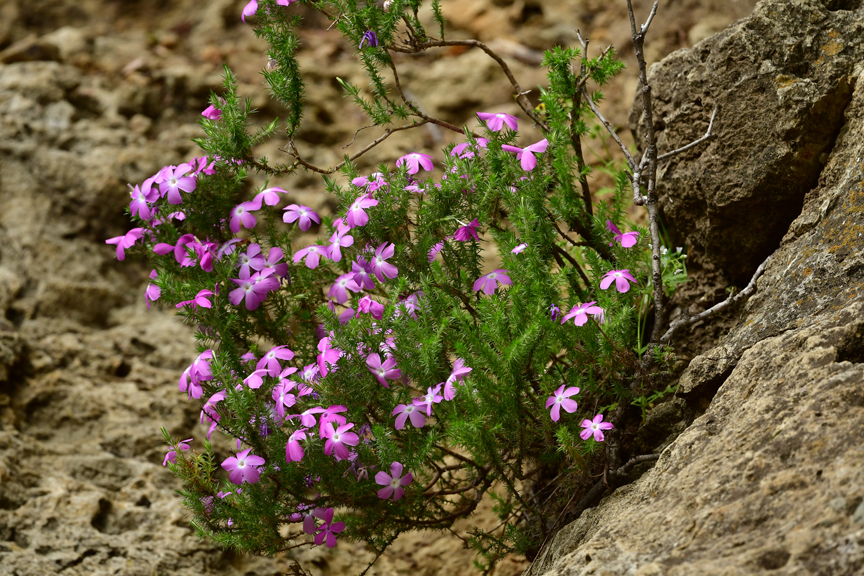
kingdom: Plantae
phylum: Tracheophyta
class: Magnoliopsida
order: Ericales
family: Polemoniaceae
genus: Linanthus
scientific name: Linanthus californicus
